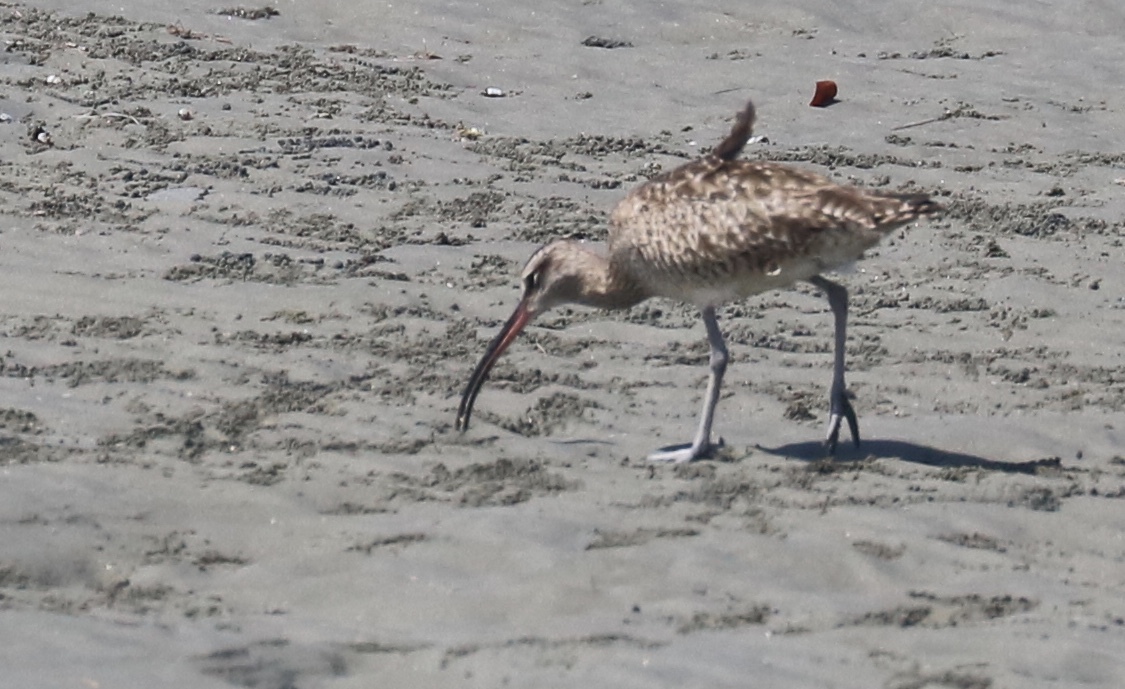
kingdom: Animalia
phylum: Chordata
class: Aves
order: Charadriiformes
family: Scolopacidae
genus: Numenius
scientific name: Numenius phaeopus
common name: Whimbrel
